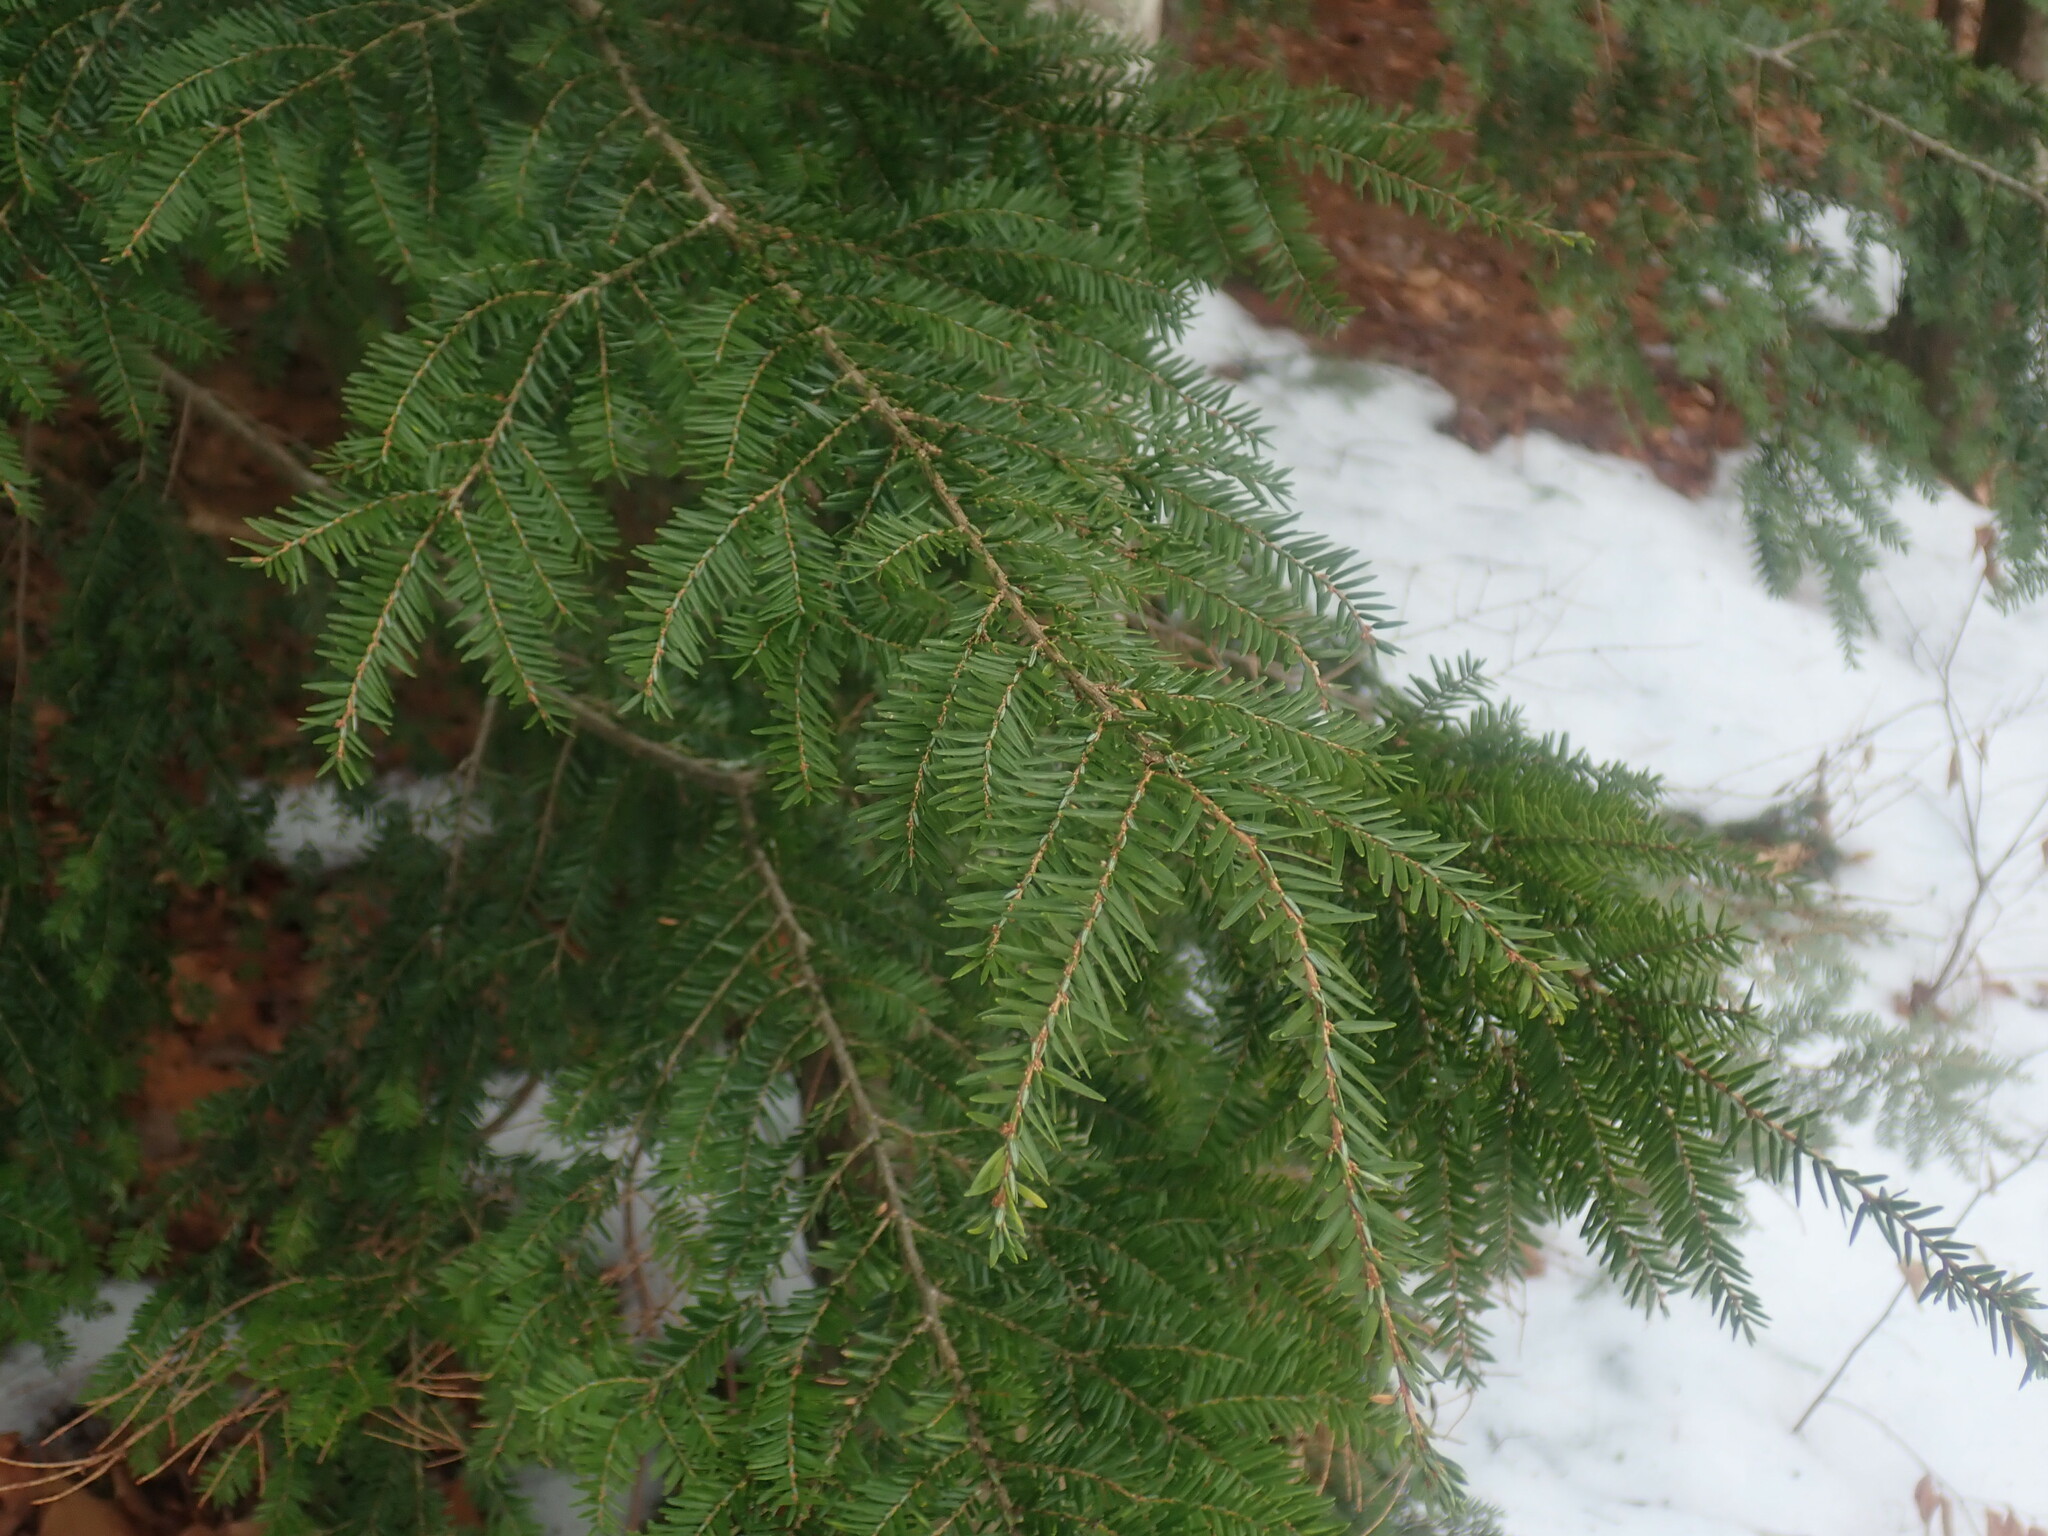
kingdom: Plantae
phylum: Tracheophyta
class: Pinopsida
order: Pinales
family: Pinaceae
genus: Tsuga
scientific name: Tsuga canadensis
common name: Eastern hemlock
